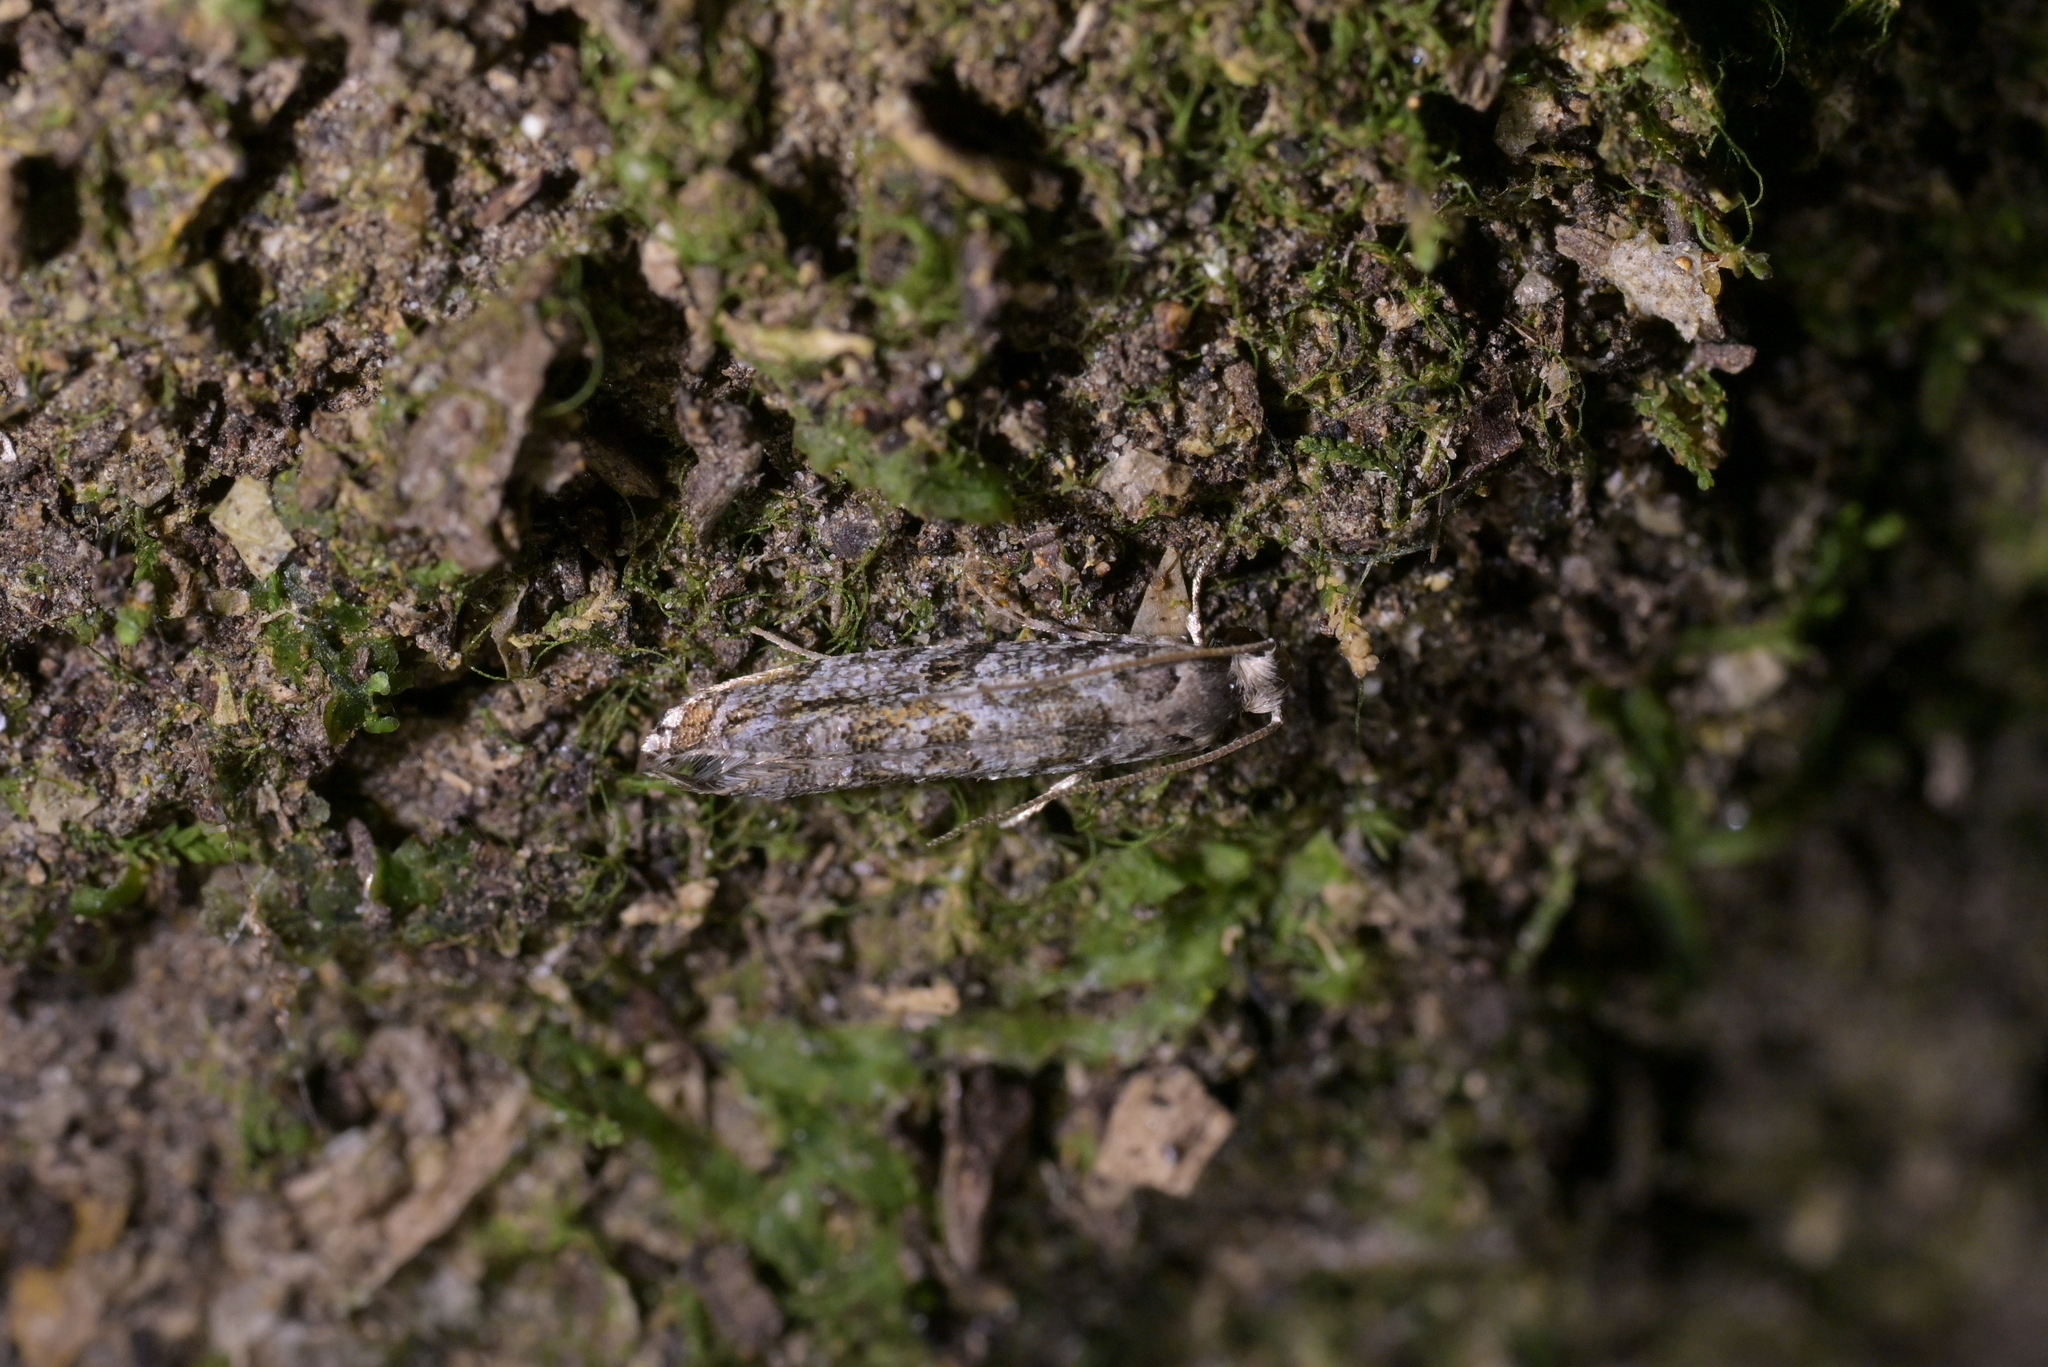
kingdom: Animalia
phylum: Arthropoda
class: Insecta
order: Lepidoptera
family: Tineidae
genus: Archyala
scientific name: Archyala paraglypta
